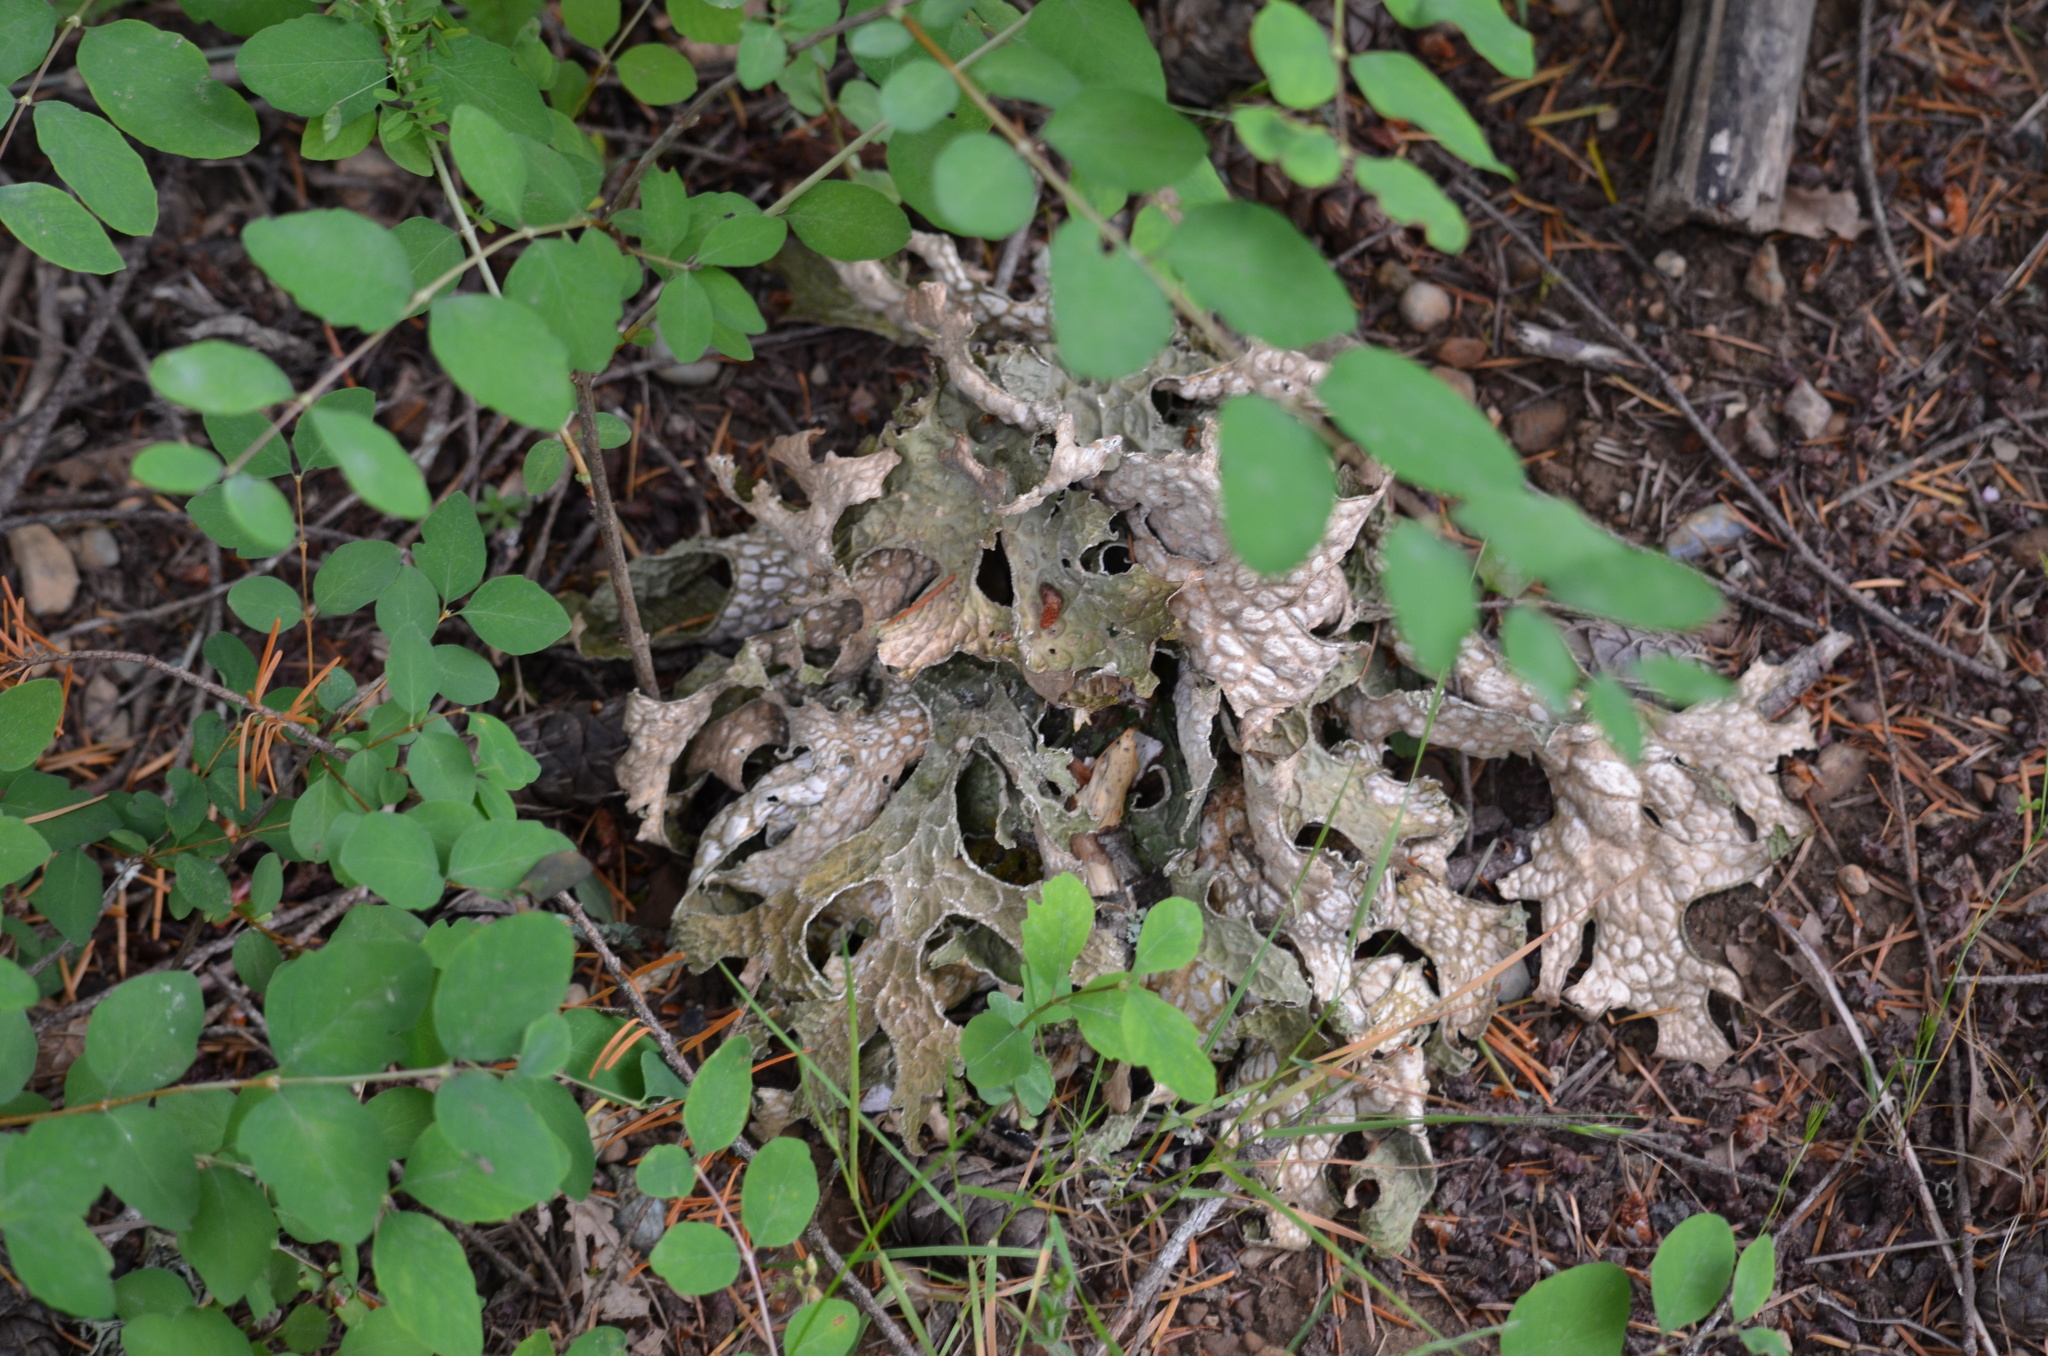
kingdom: Fungi
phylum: Ascomycota
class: Lecanoromycetes
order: Peltigerales
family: Lobariaceae
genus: Lobaria
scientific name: Lobaria pulmonaria
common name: Lungwort
